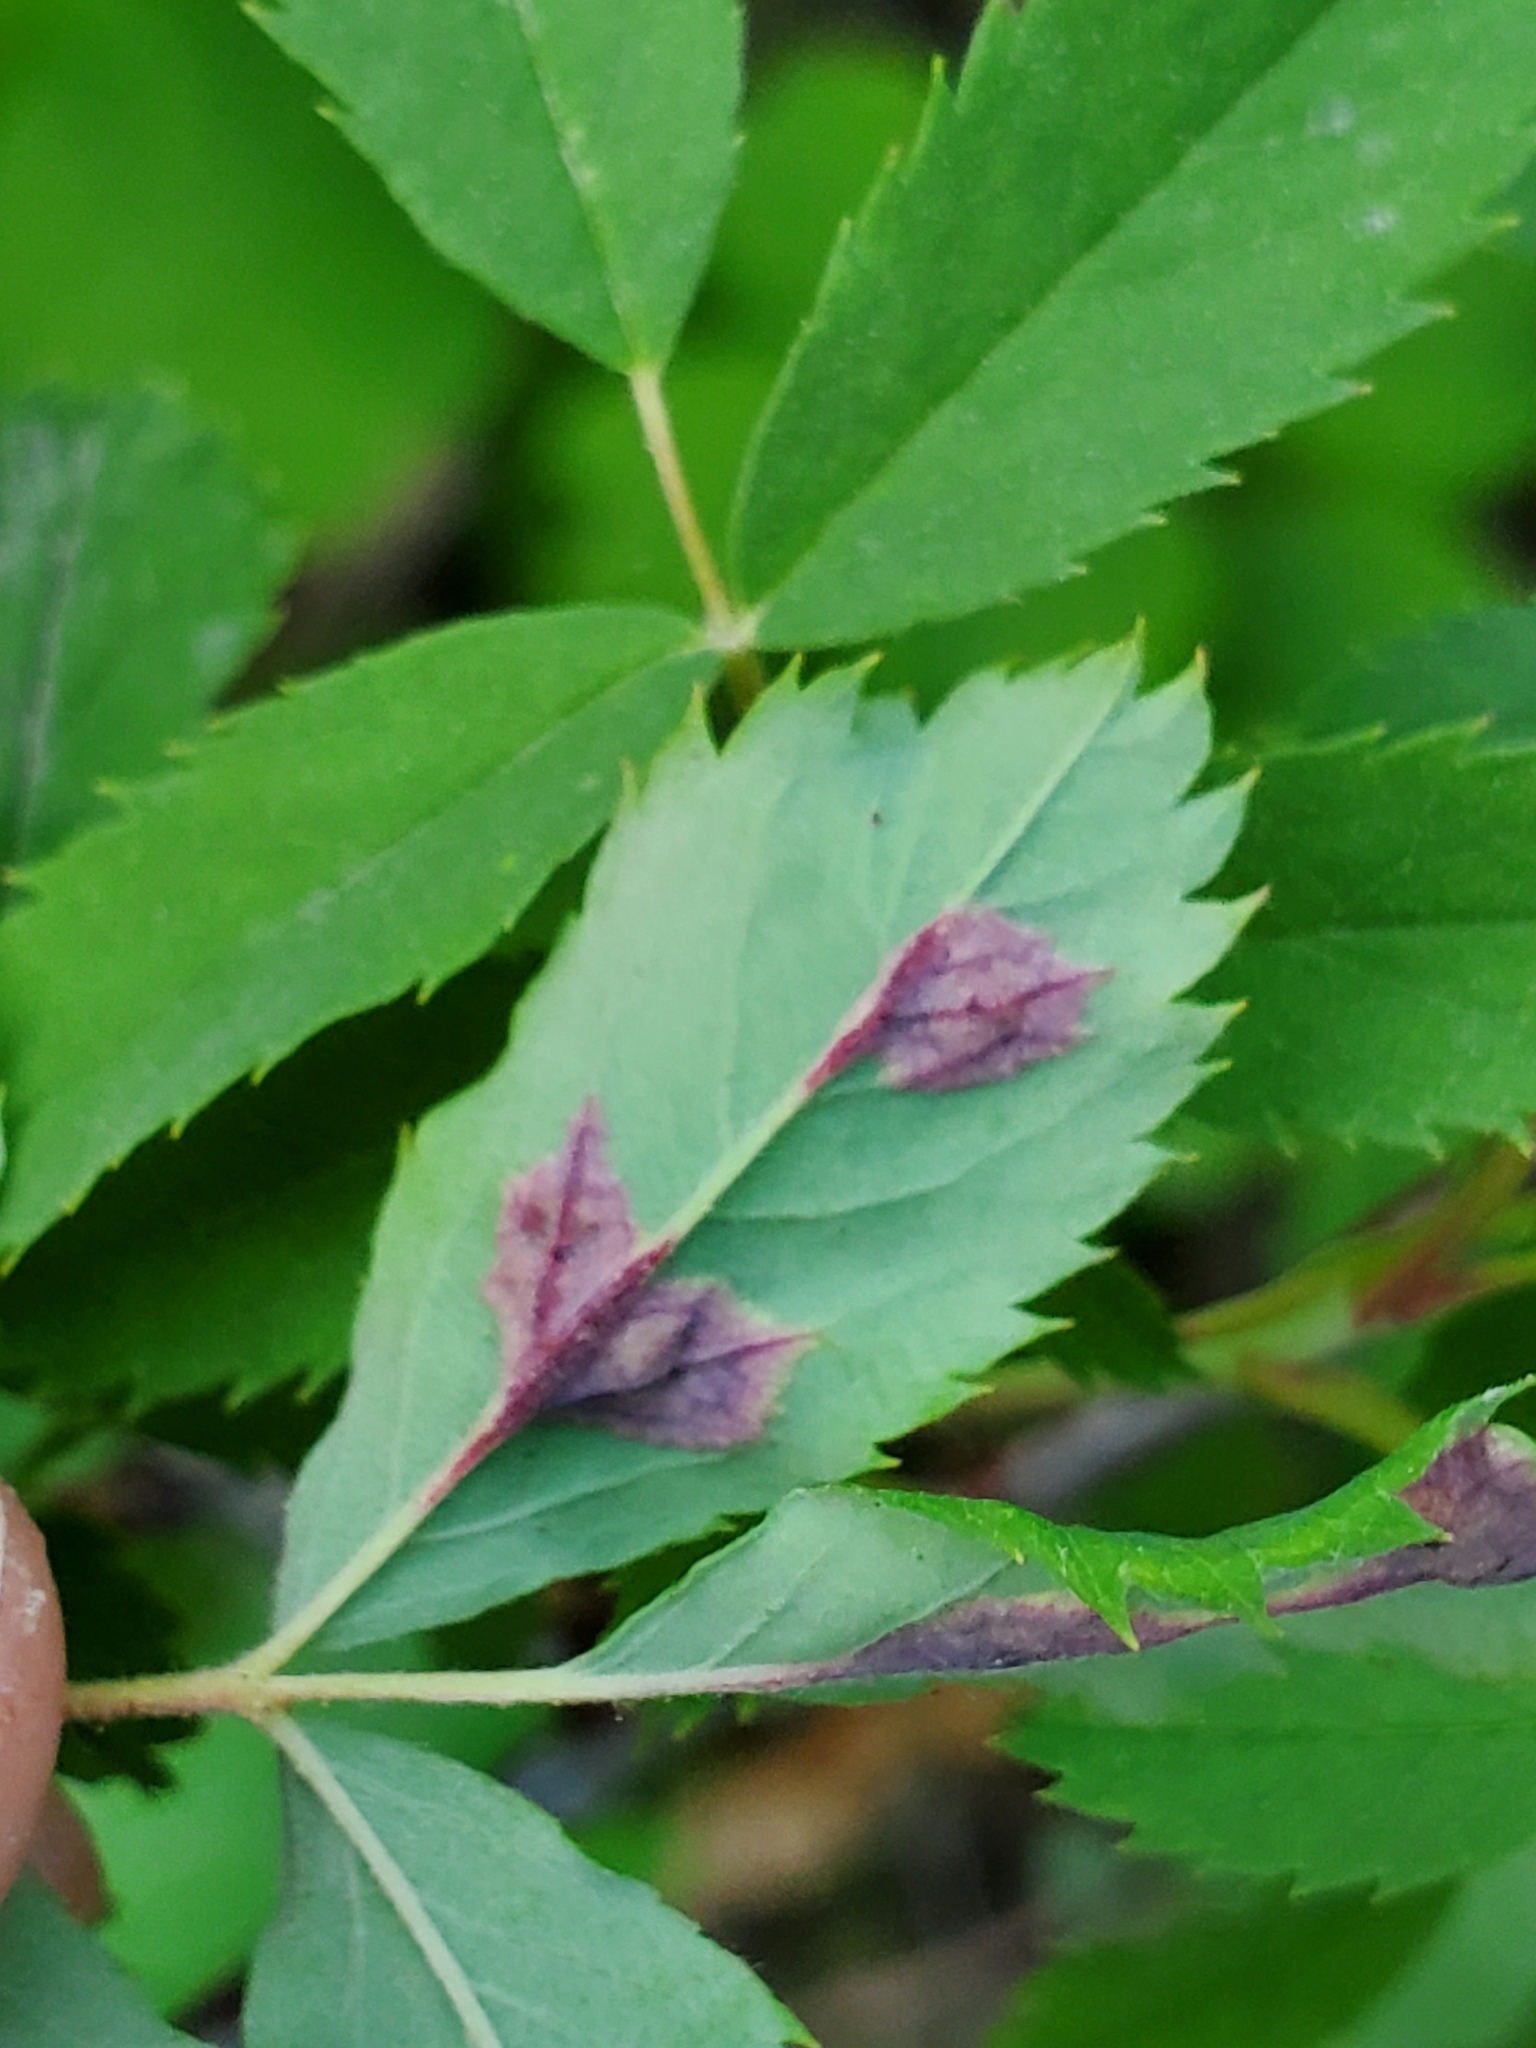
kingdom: Animalia
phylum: Arthropoda
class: Insecta
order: Hymenoptera
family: Cynipidae
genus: Diplolepis
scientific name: Diplolepis rosaefolii
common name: Blister-gall wasp
